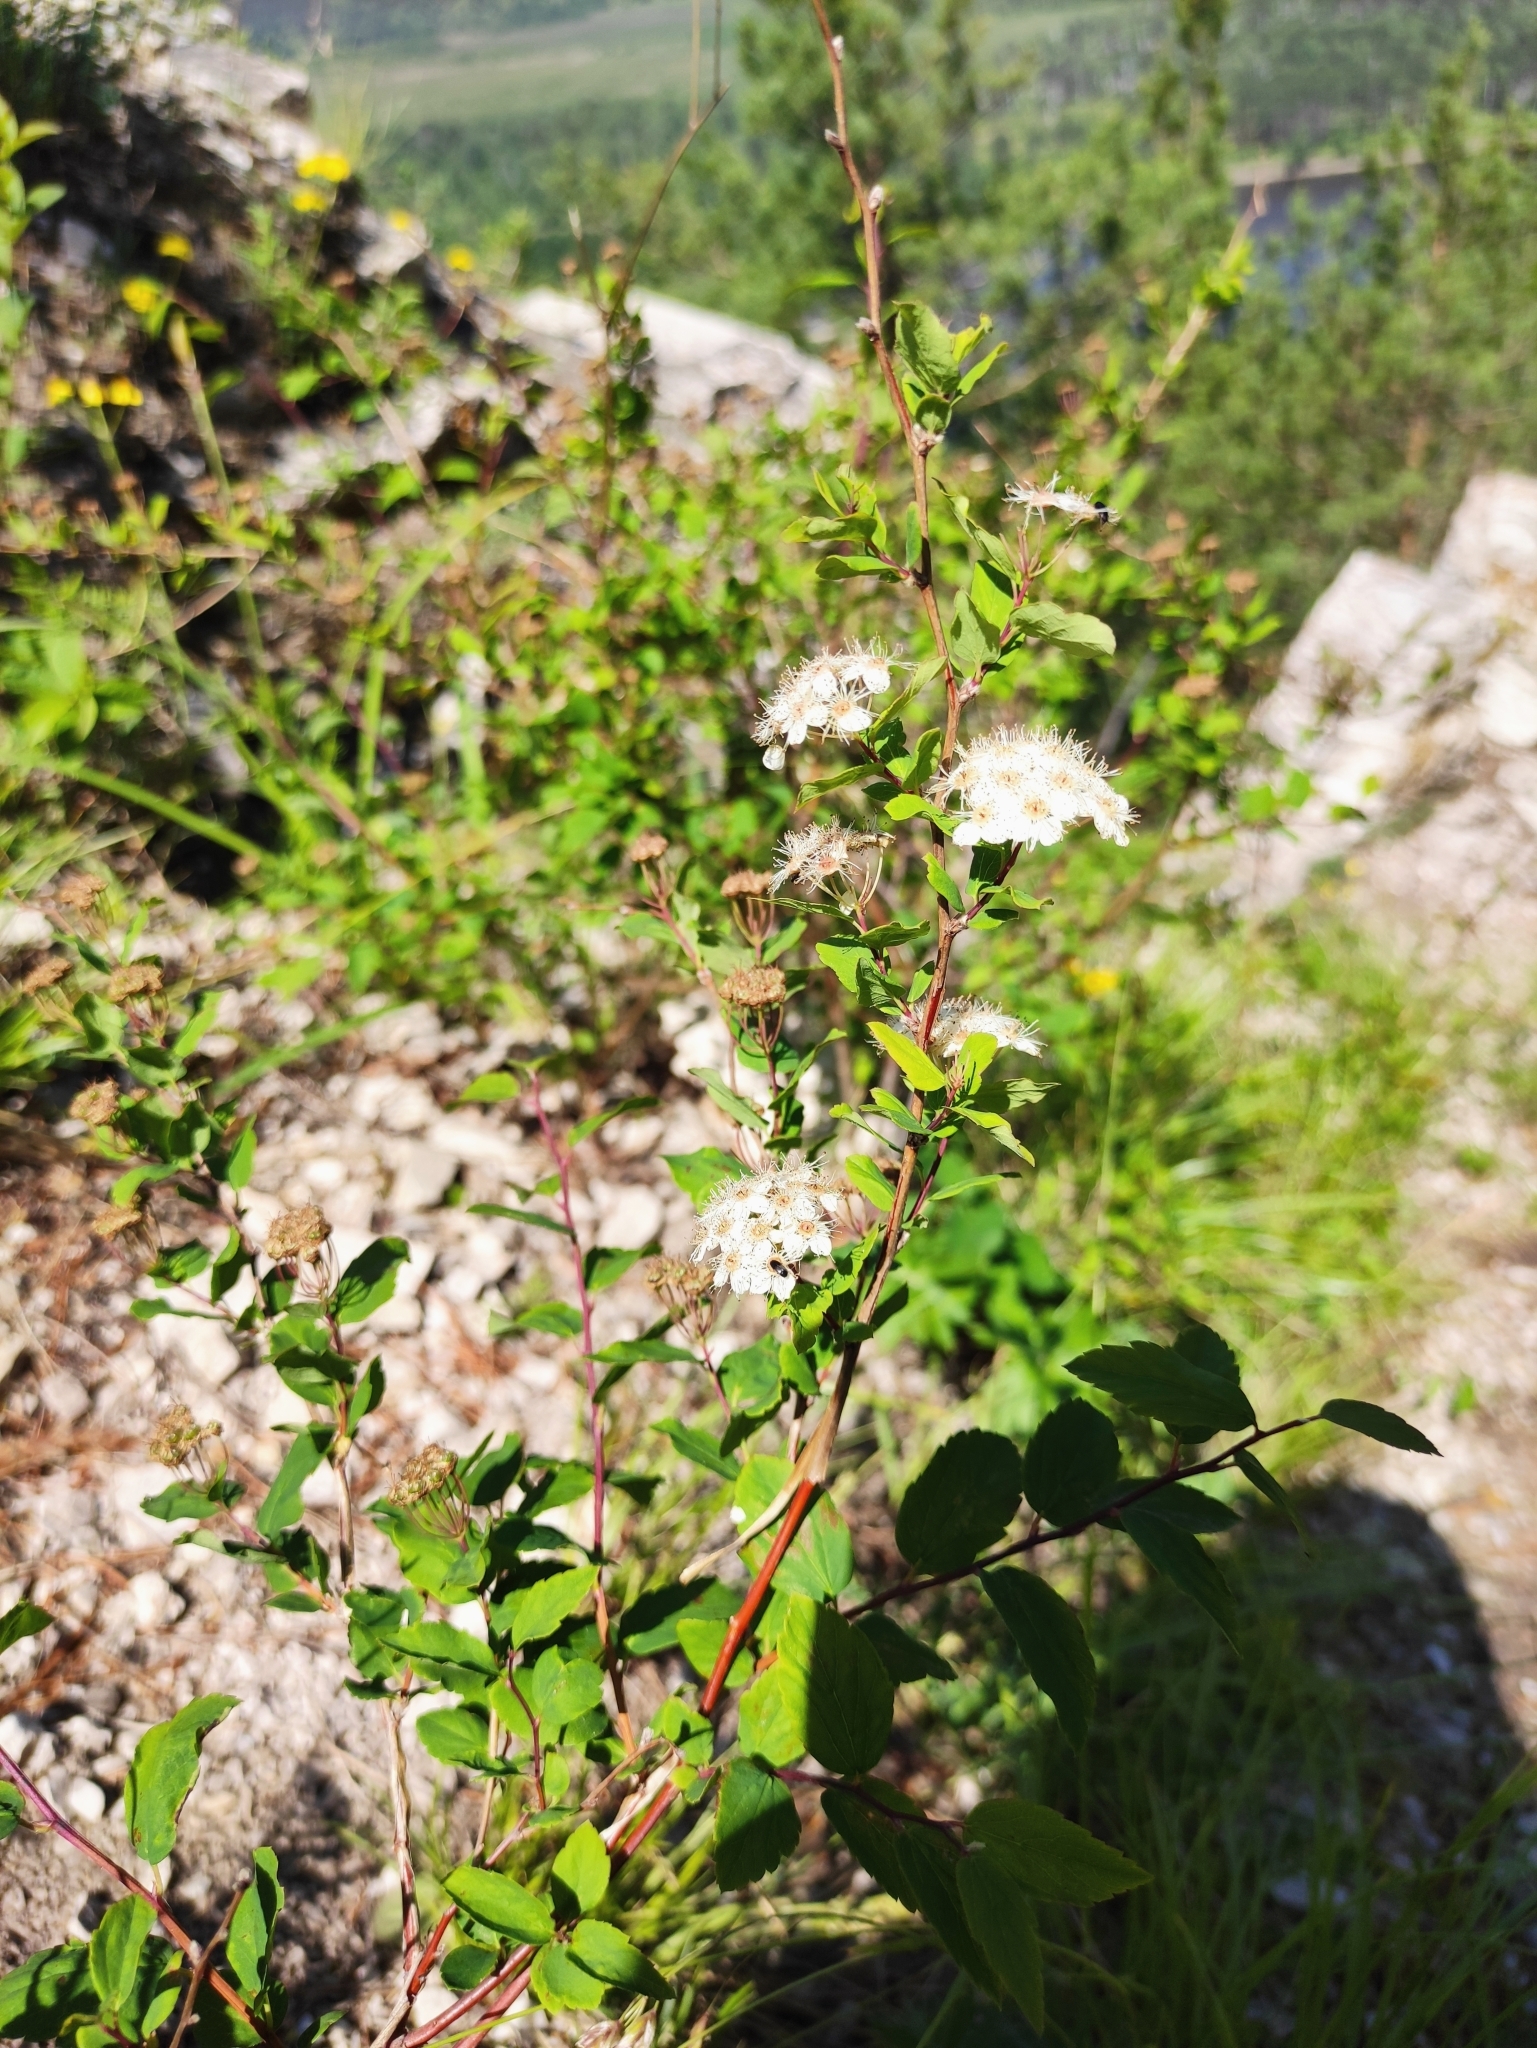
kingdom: Plantae
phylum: Tracheophyta
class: Magnoliopsida
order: Rosales
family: Rosaceae
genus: Spiraea
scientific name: Spiraea flexuosa
